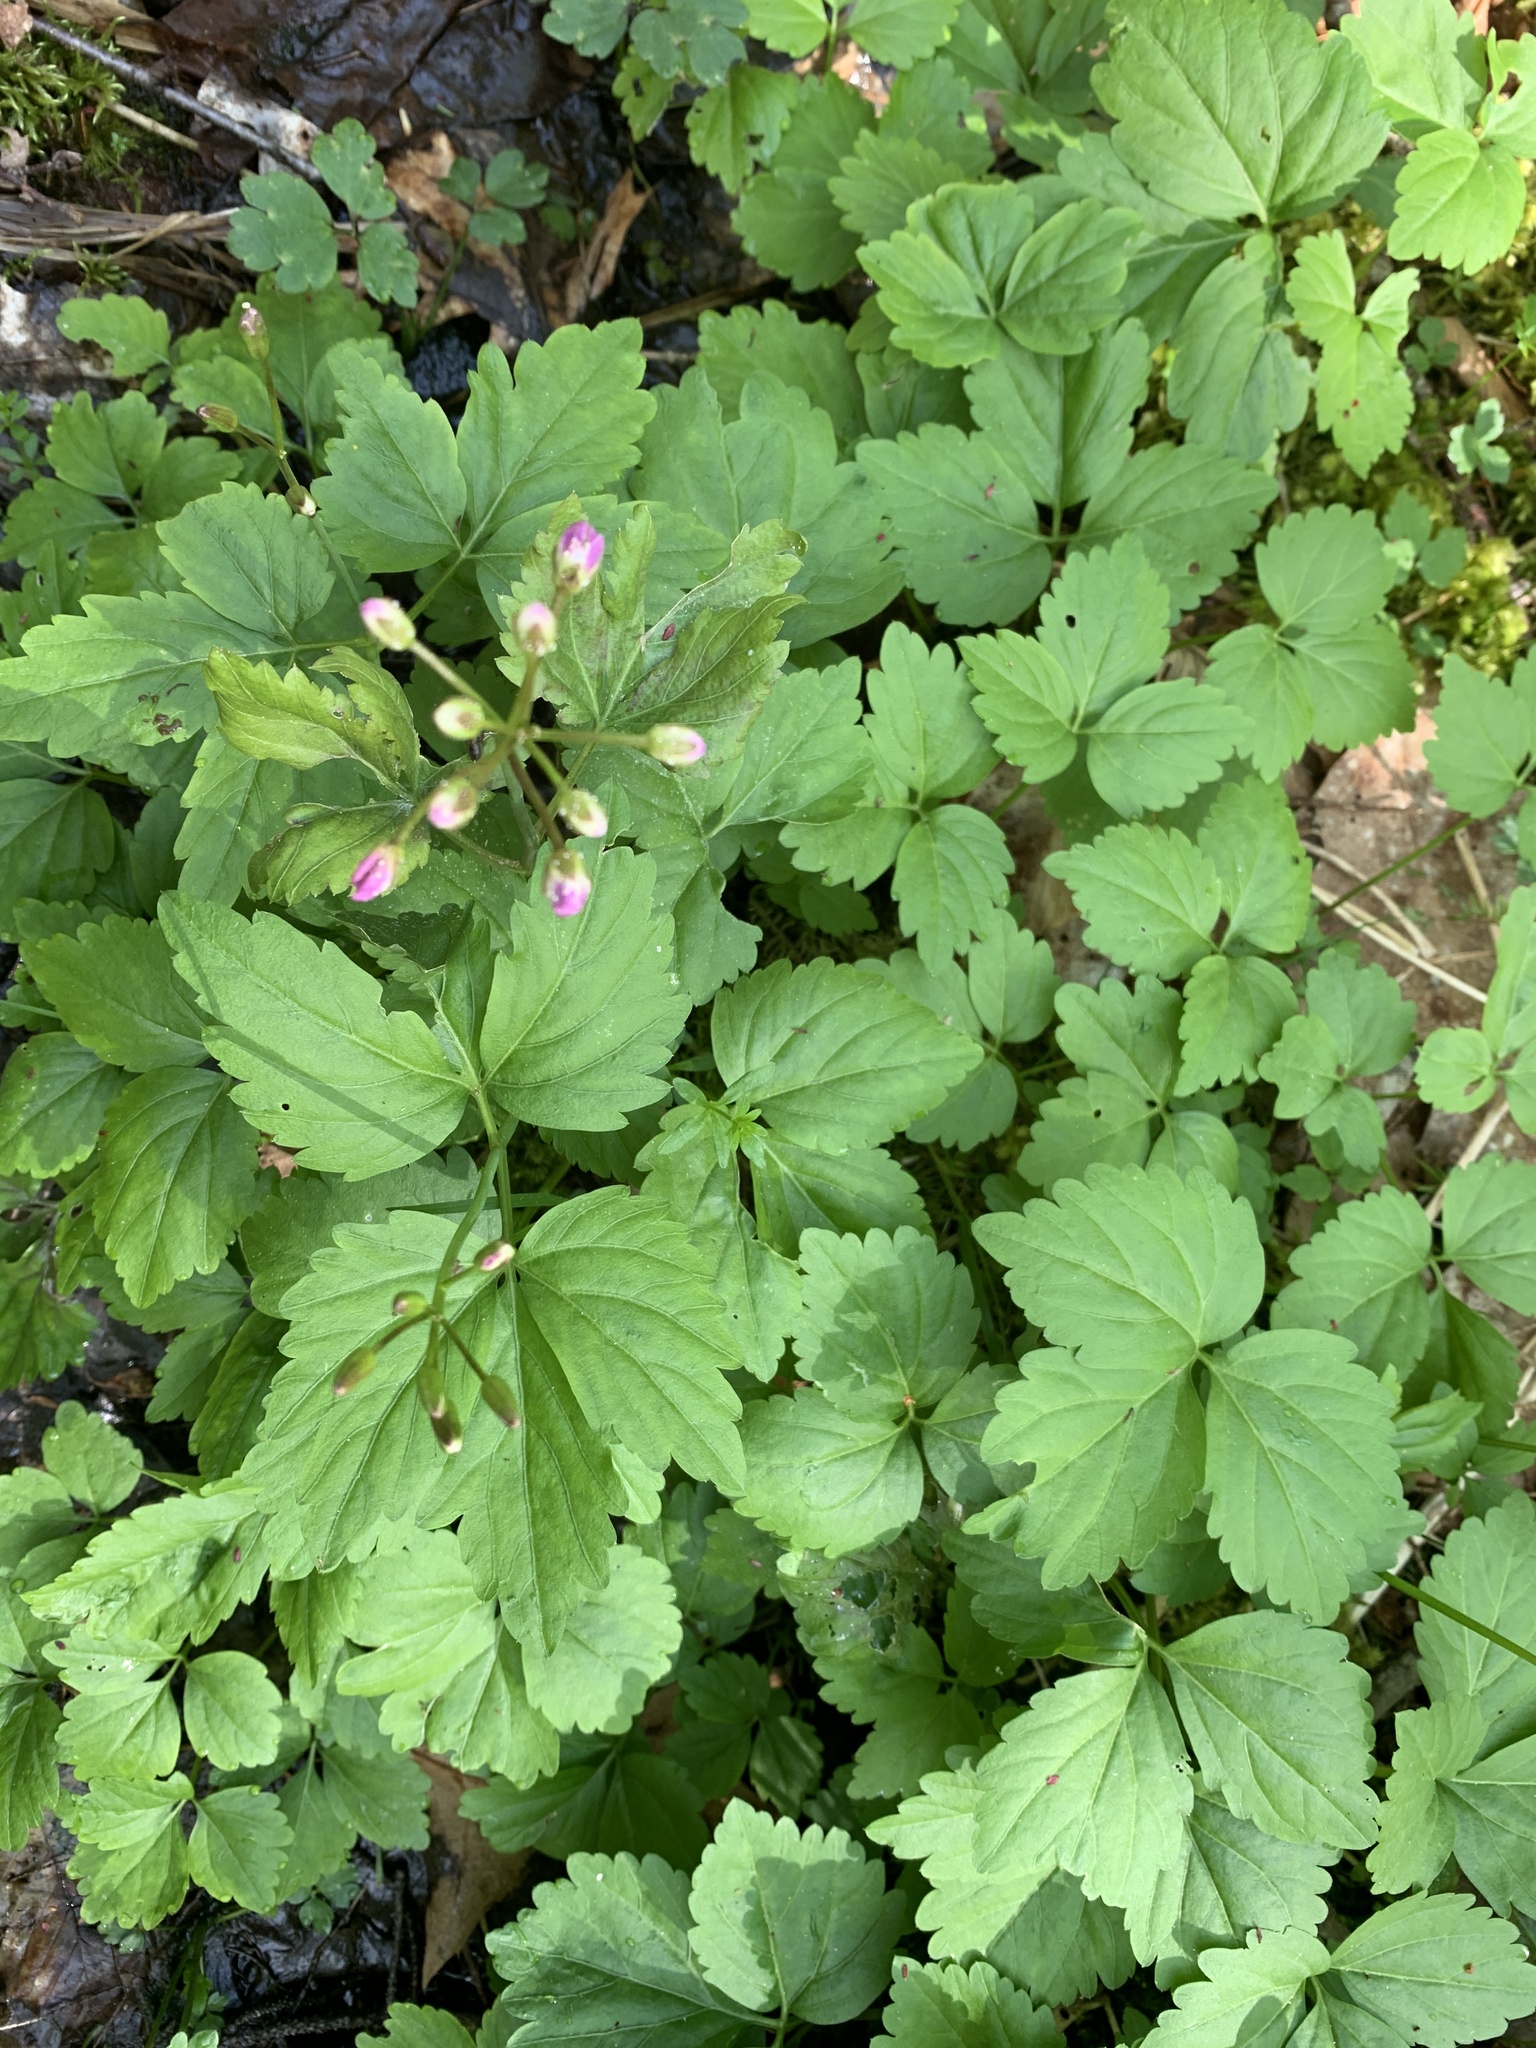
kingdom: Plantae
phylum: Tracheophyta
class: Magnoliopsida
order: Brassicales
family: Brassicaceae
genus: Cardamine
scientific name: Cardamine diphylla
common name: Broad-leaved toothwort
